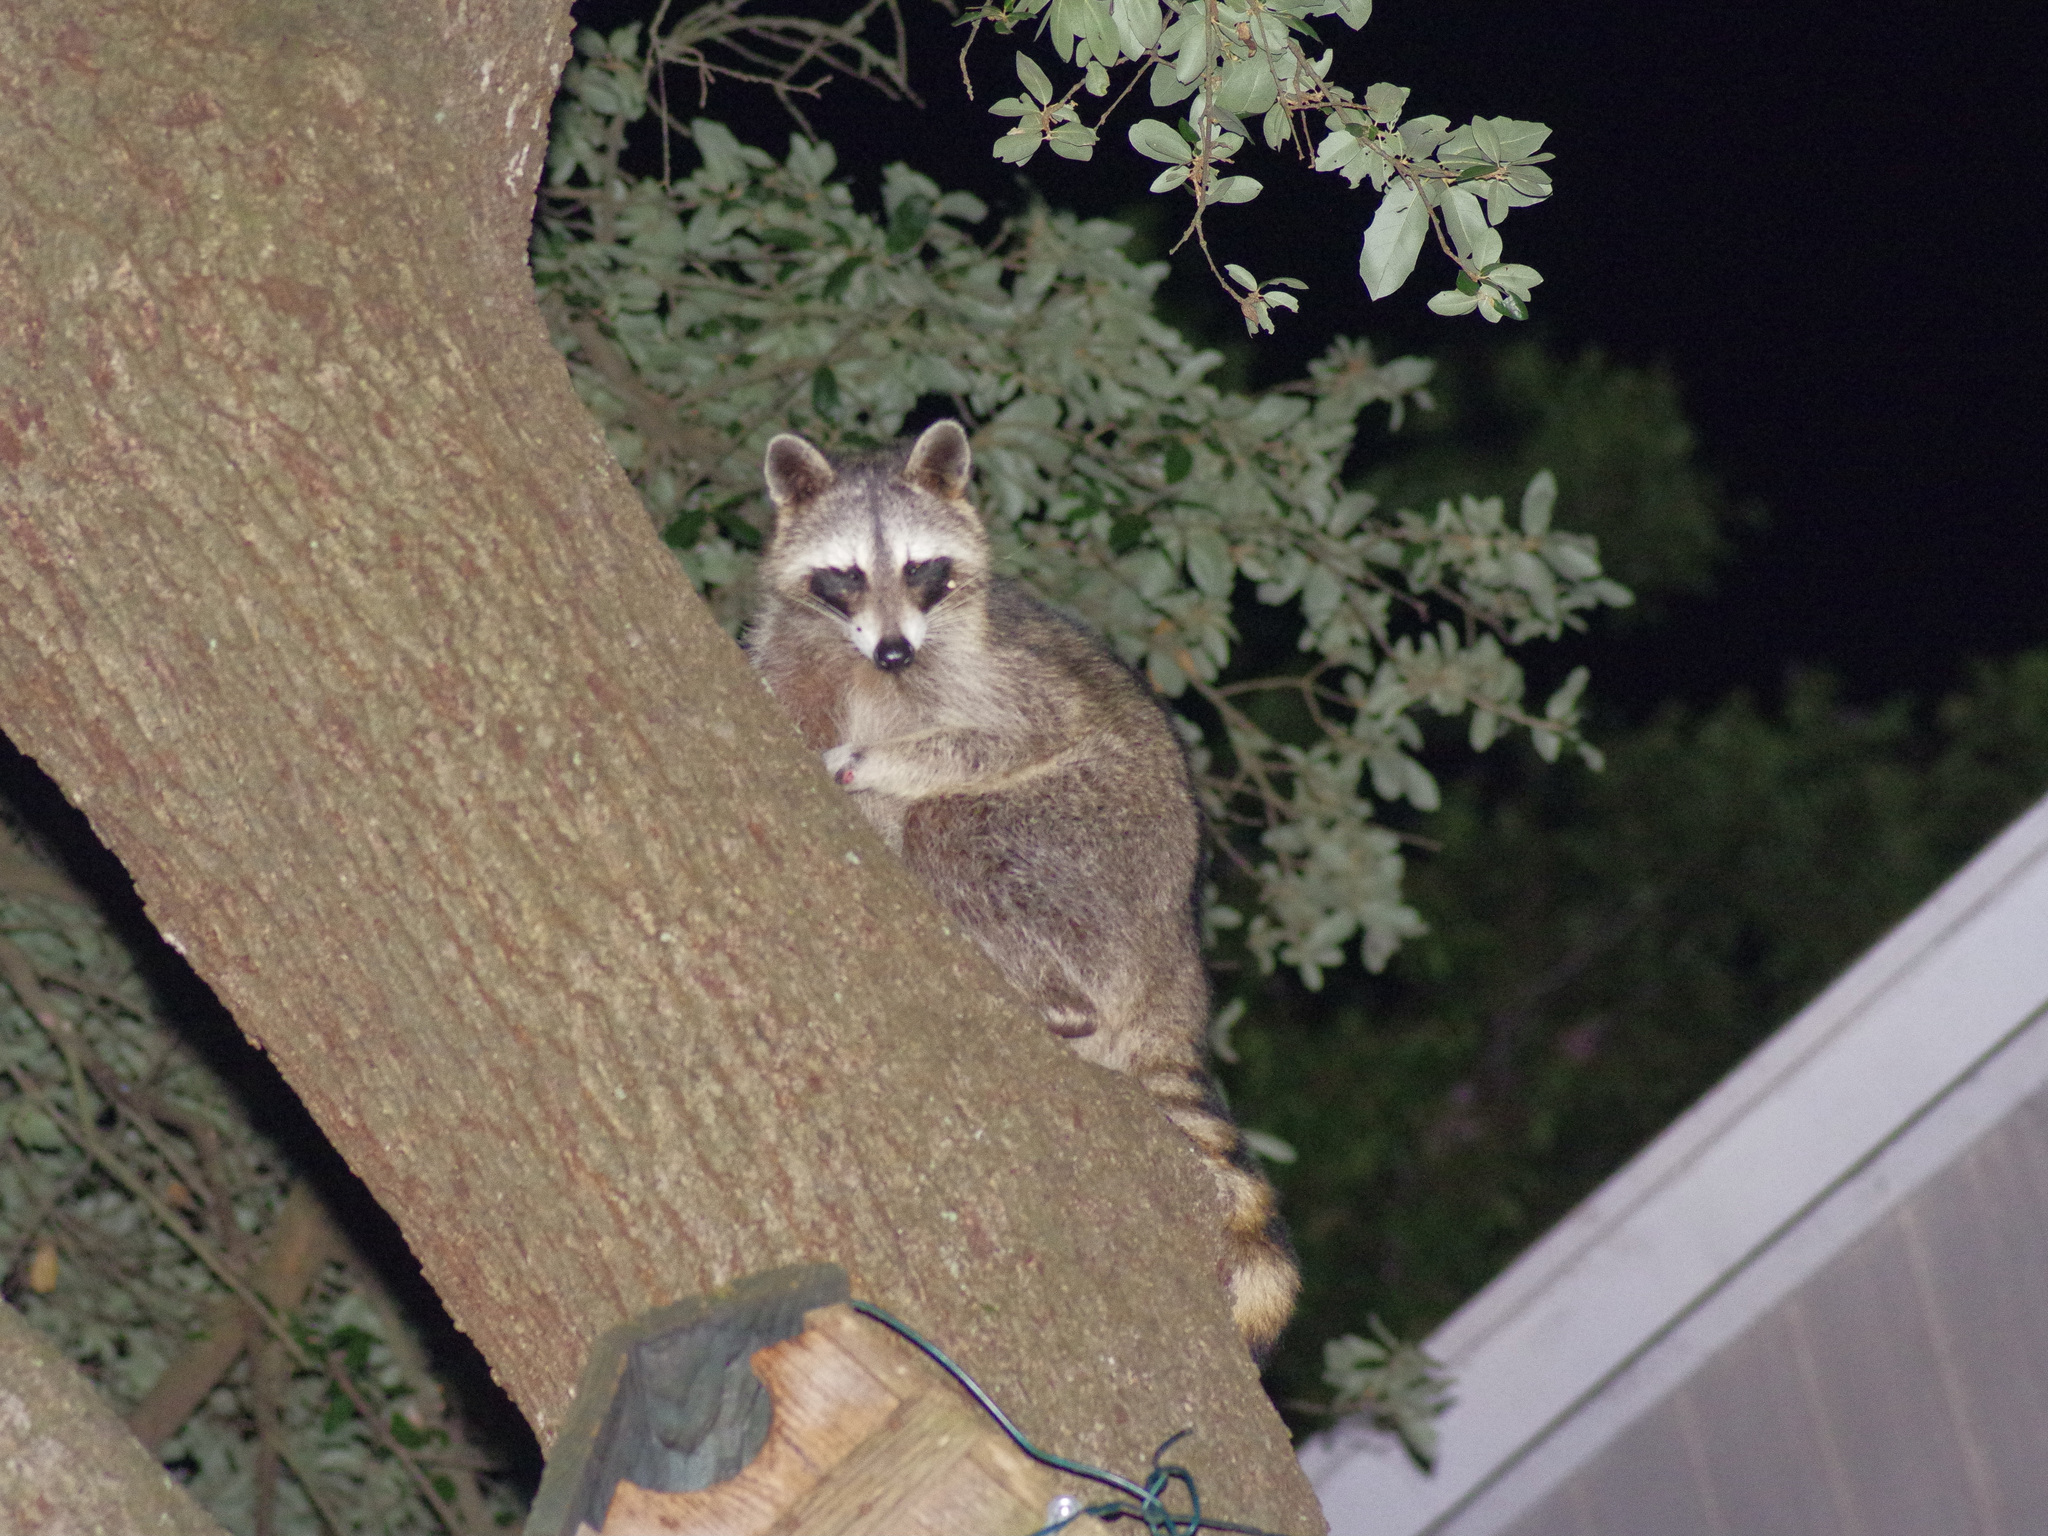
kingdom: Animalia
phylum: Chordata
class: Mammalia
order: Carnivora
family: Procyonidae
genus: Procyon
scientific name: Procyon lotor
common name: Raccoon
